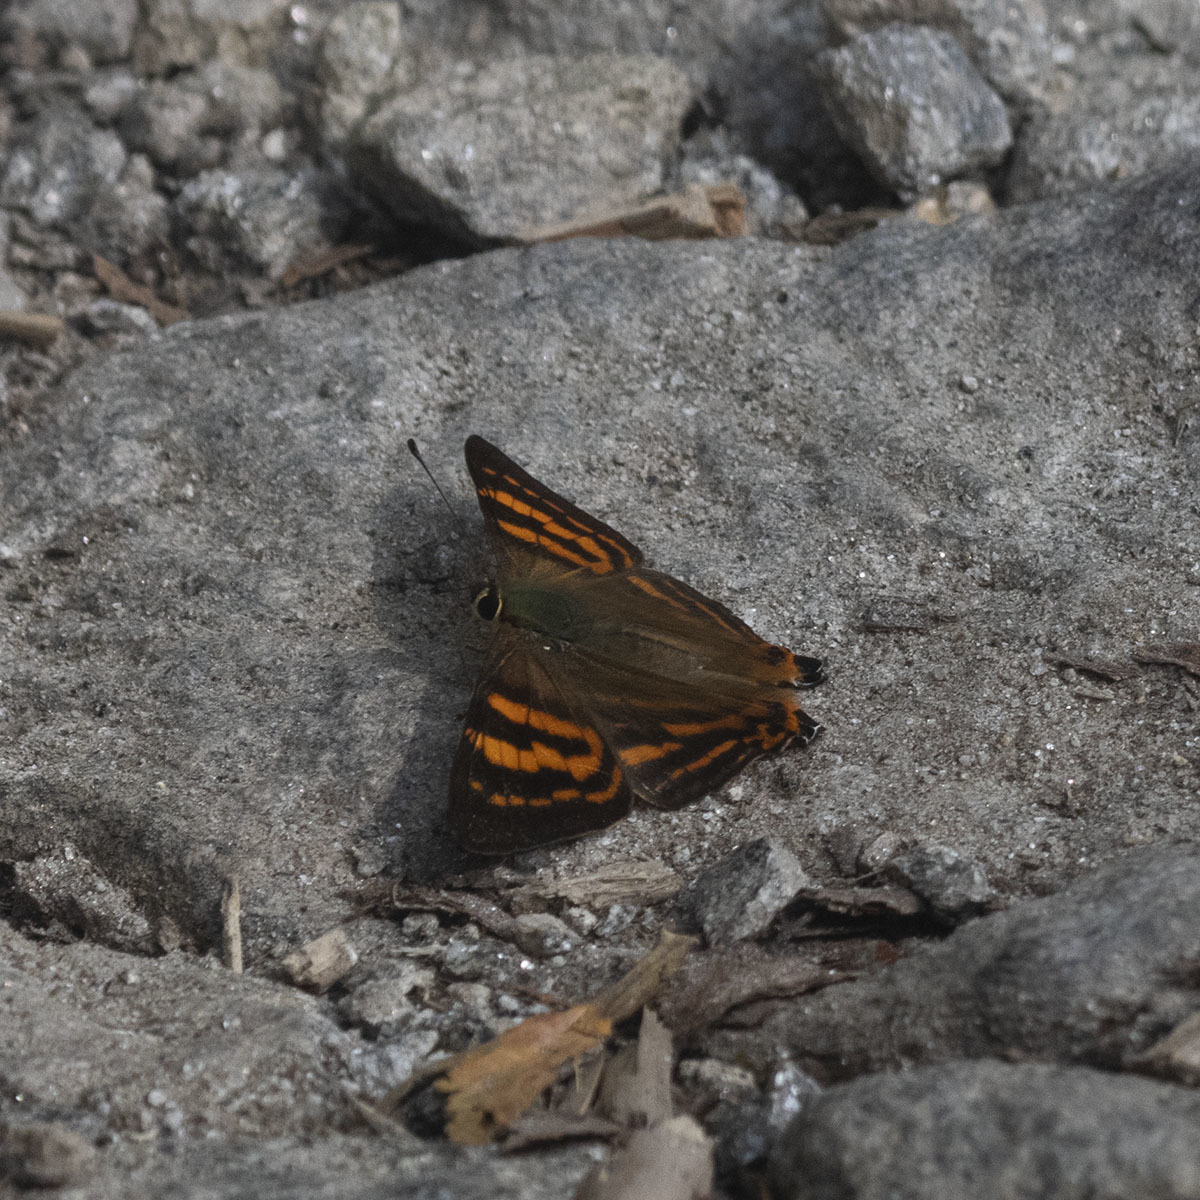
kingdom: Animalia
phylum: Arthropoda
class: Insecta
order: Lepidoptera
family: Lycaenidae
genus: Dodona
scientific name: Dodona adonira
